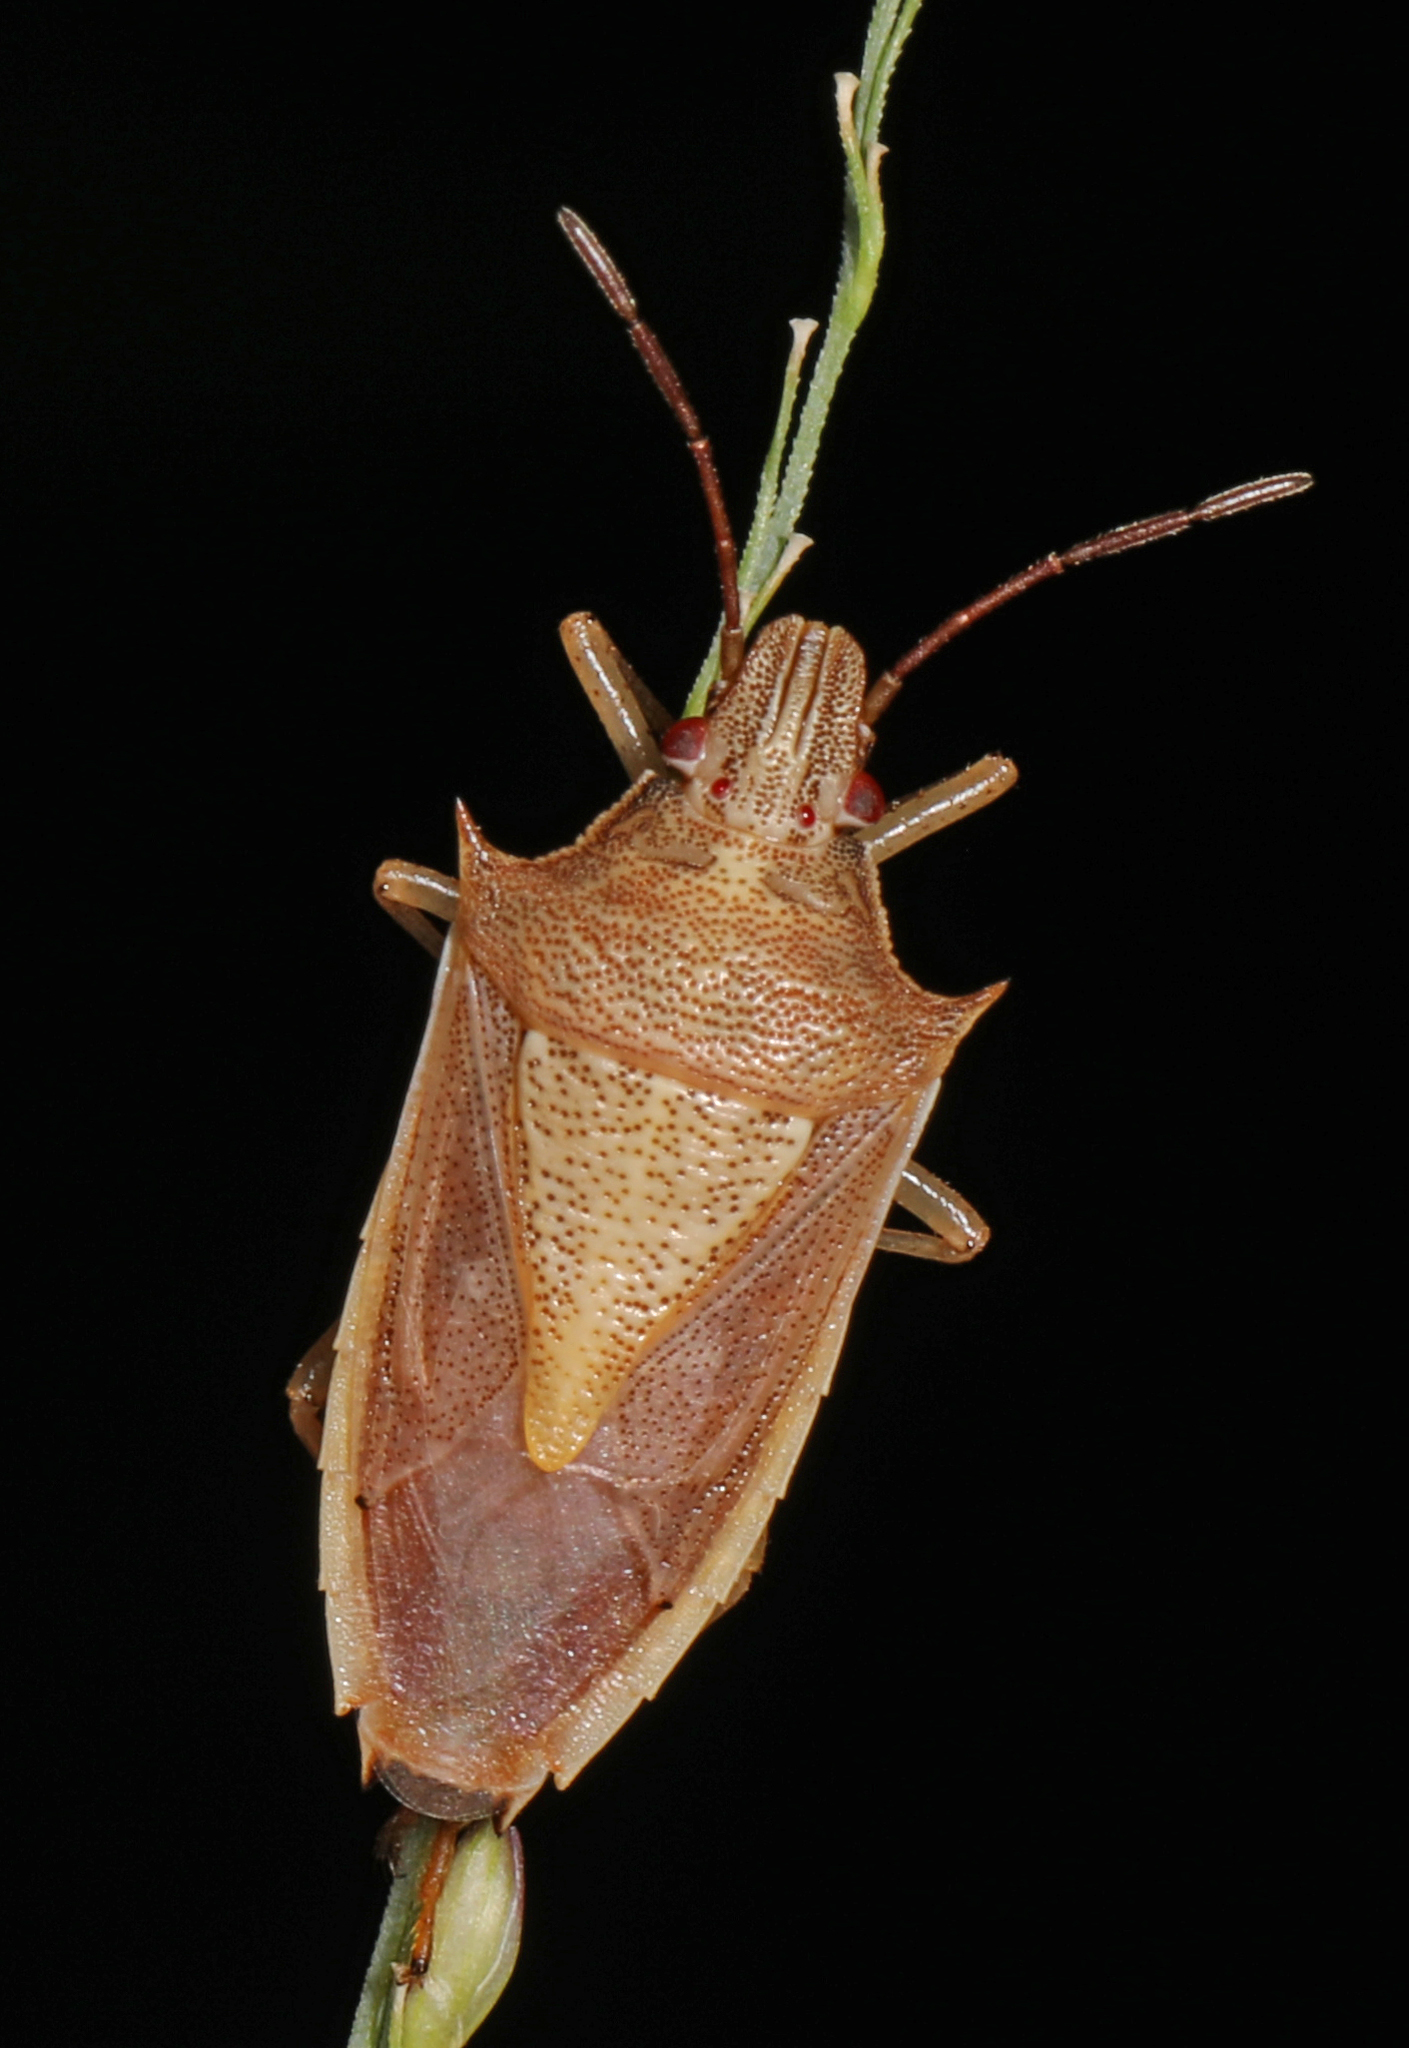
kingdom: Animalia
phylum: Arthropoda
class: Insecta
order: Hemiptera
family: Pentatomidae
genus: Oebalus
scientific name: Oebalus pugnax
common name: Rice stink bug
